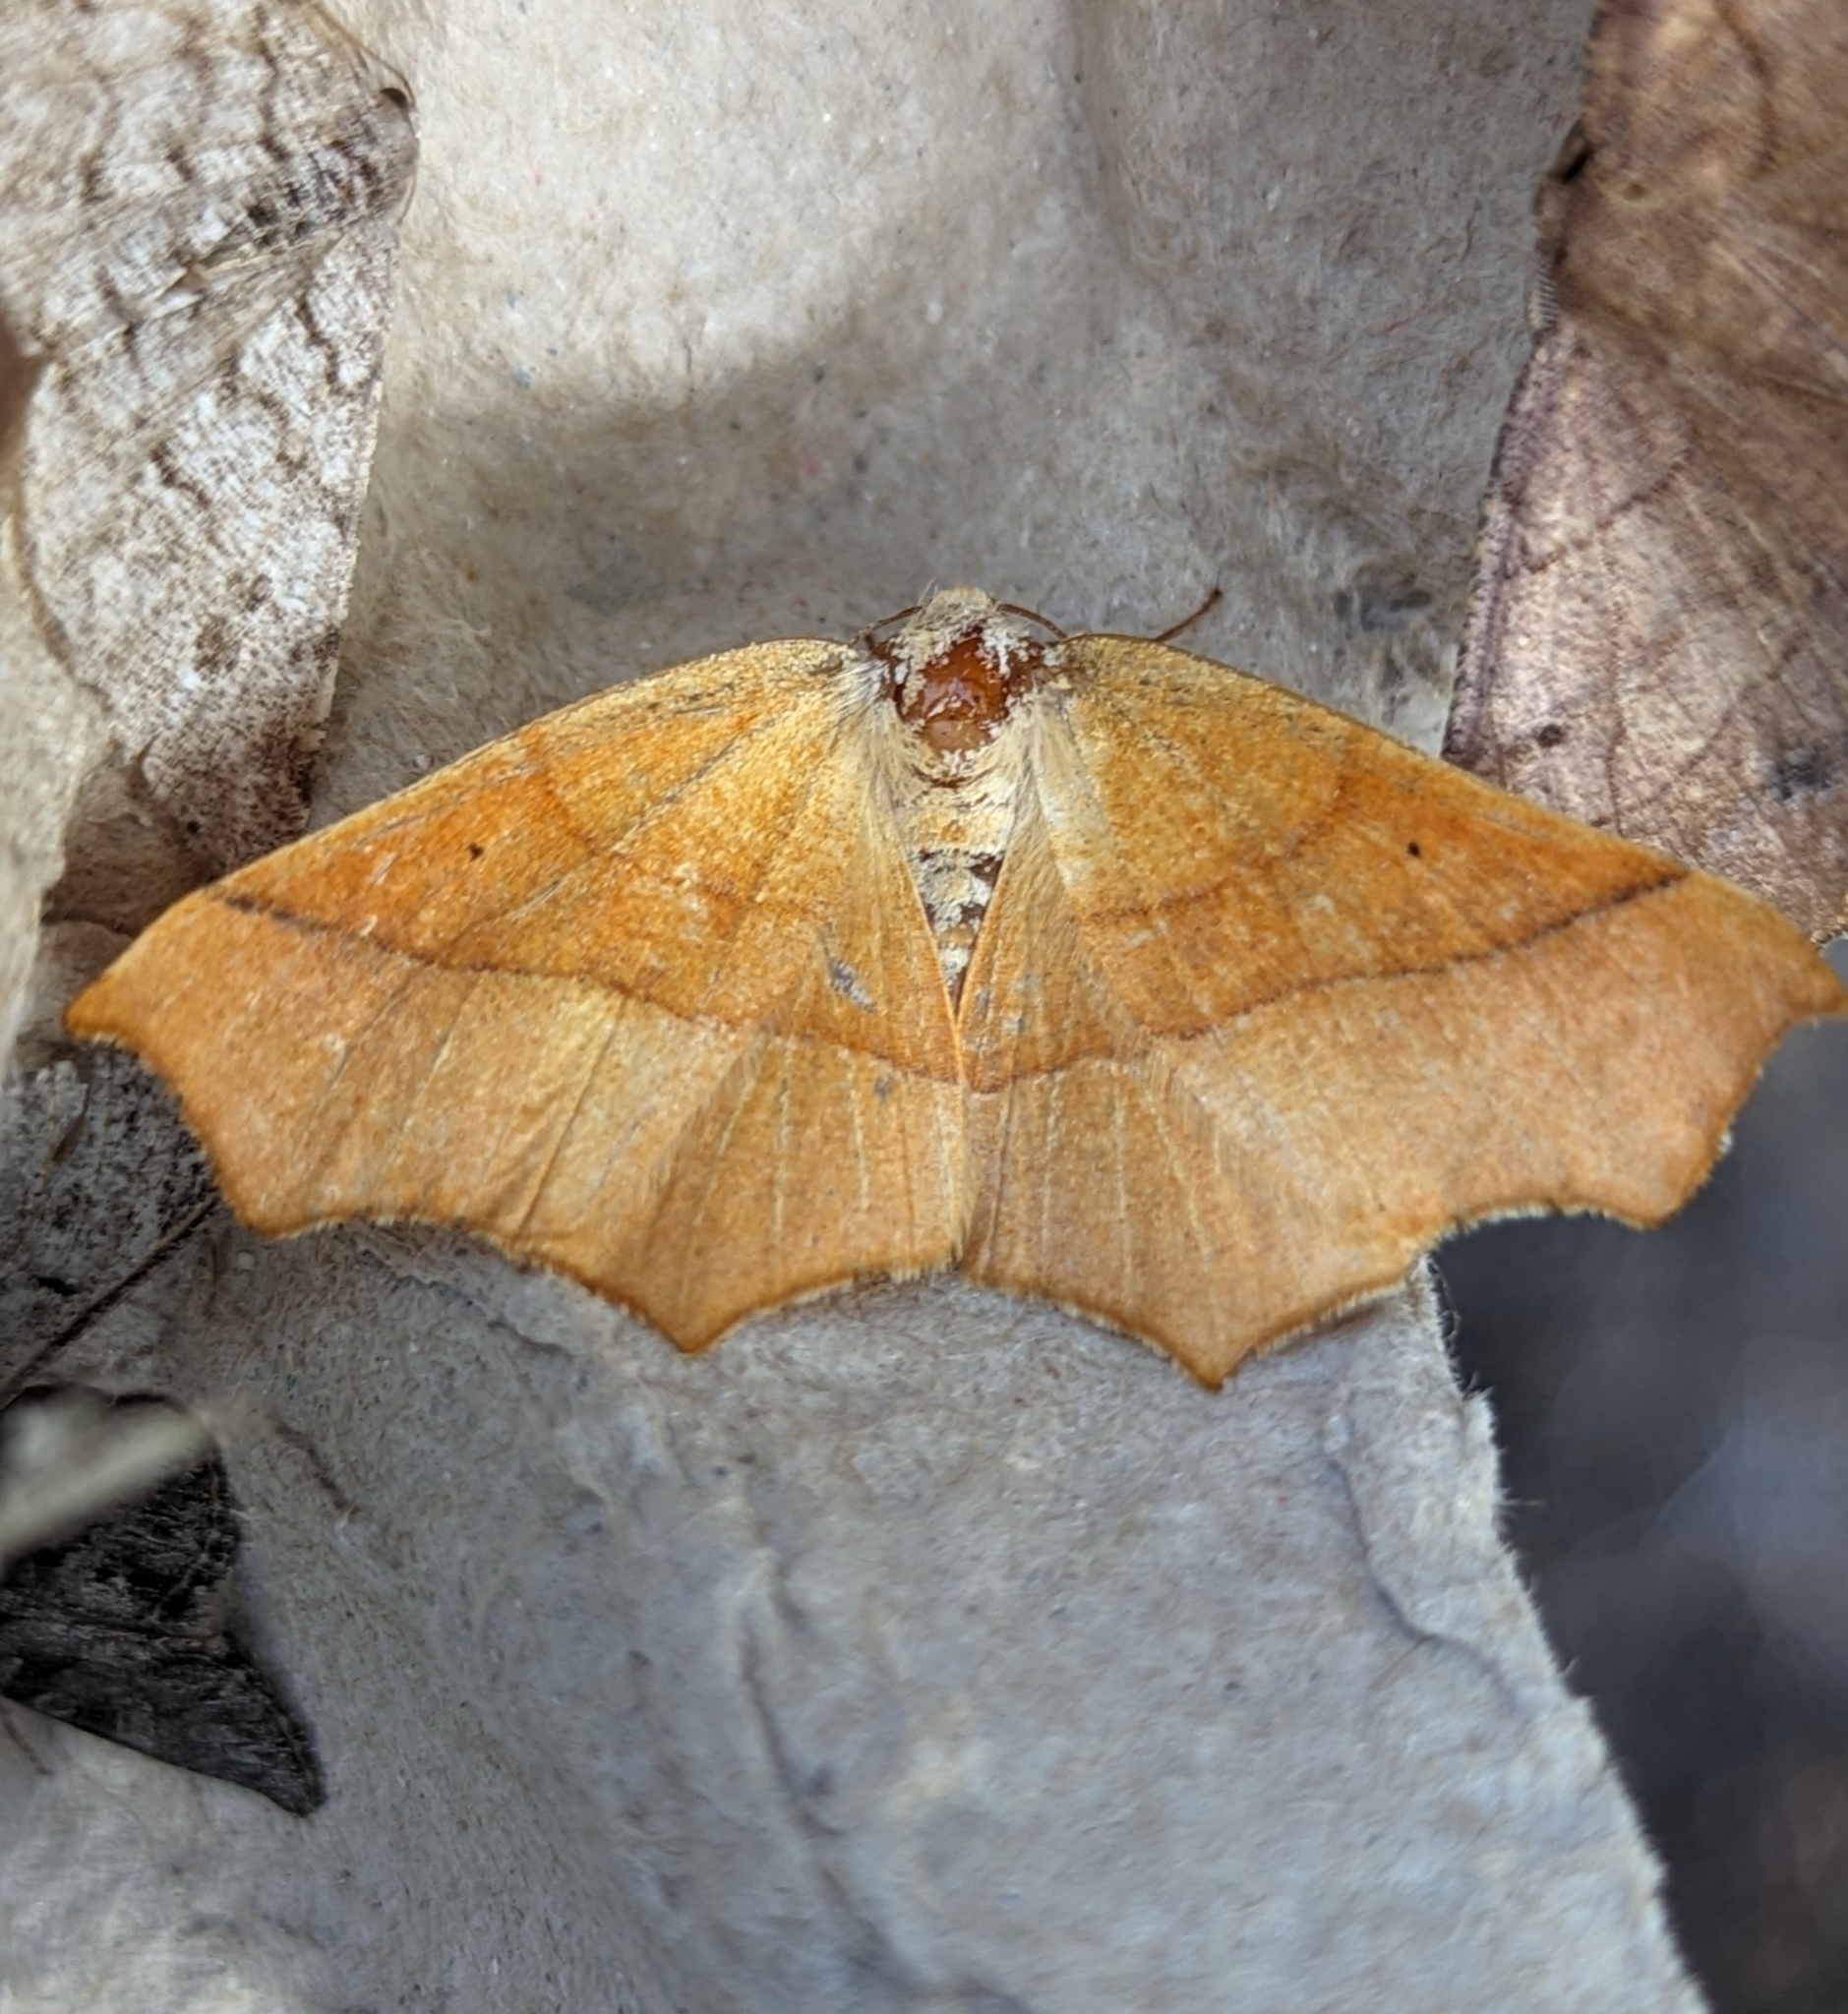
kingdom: Animalia
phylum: Arthropoda
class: Insecta
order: Lepidoptera
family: Geometridae
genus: Tetracis
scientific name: Tetracis cervinaria
